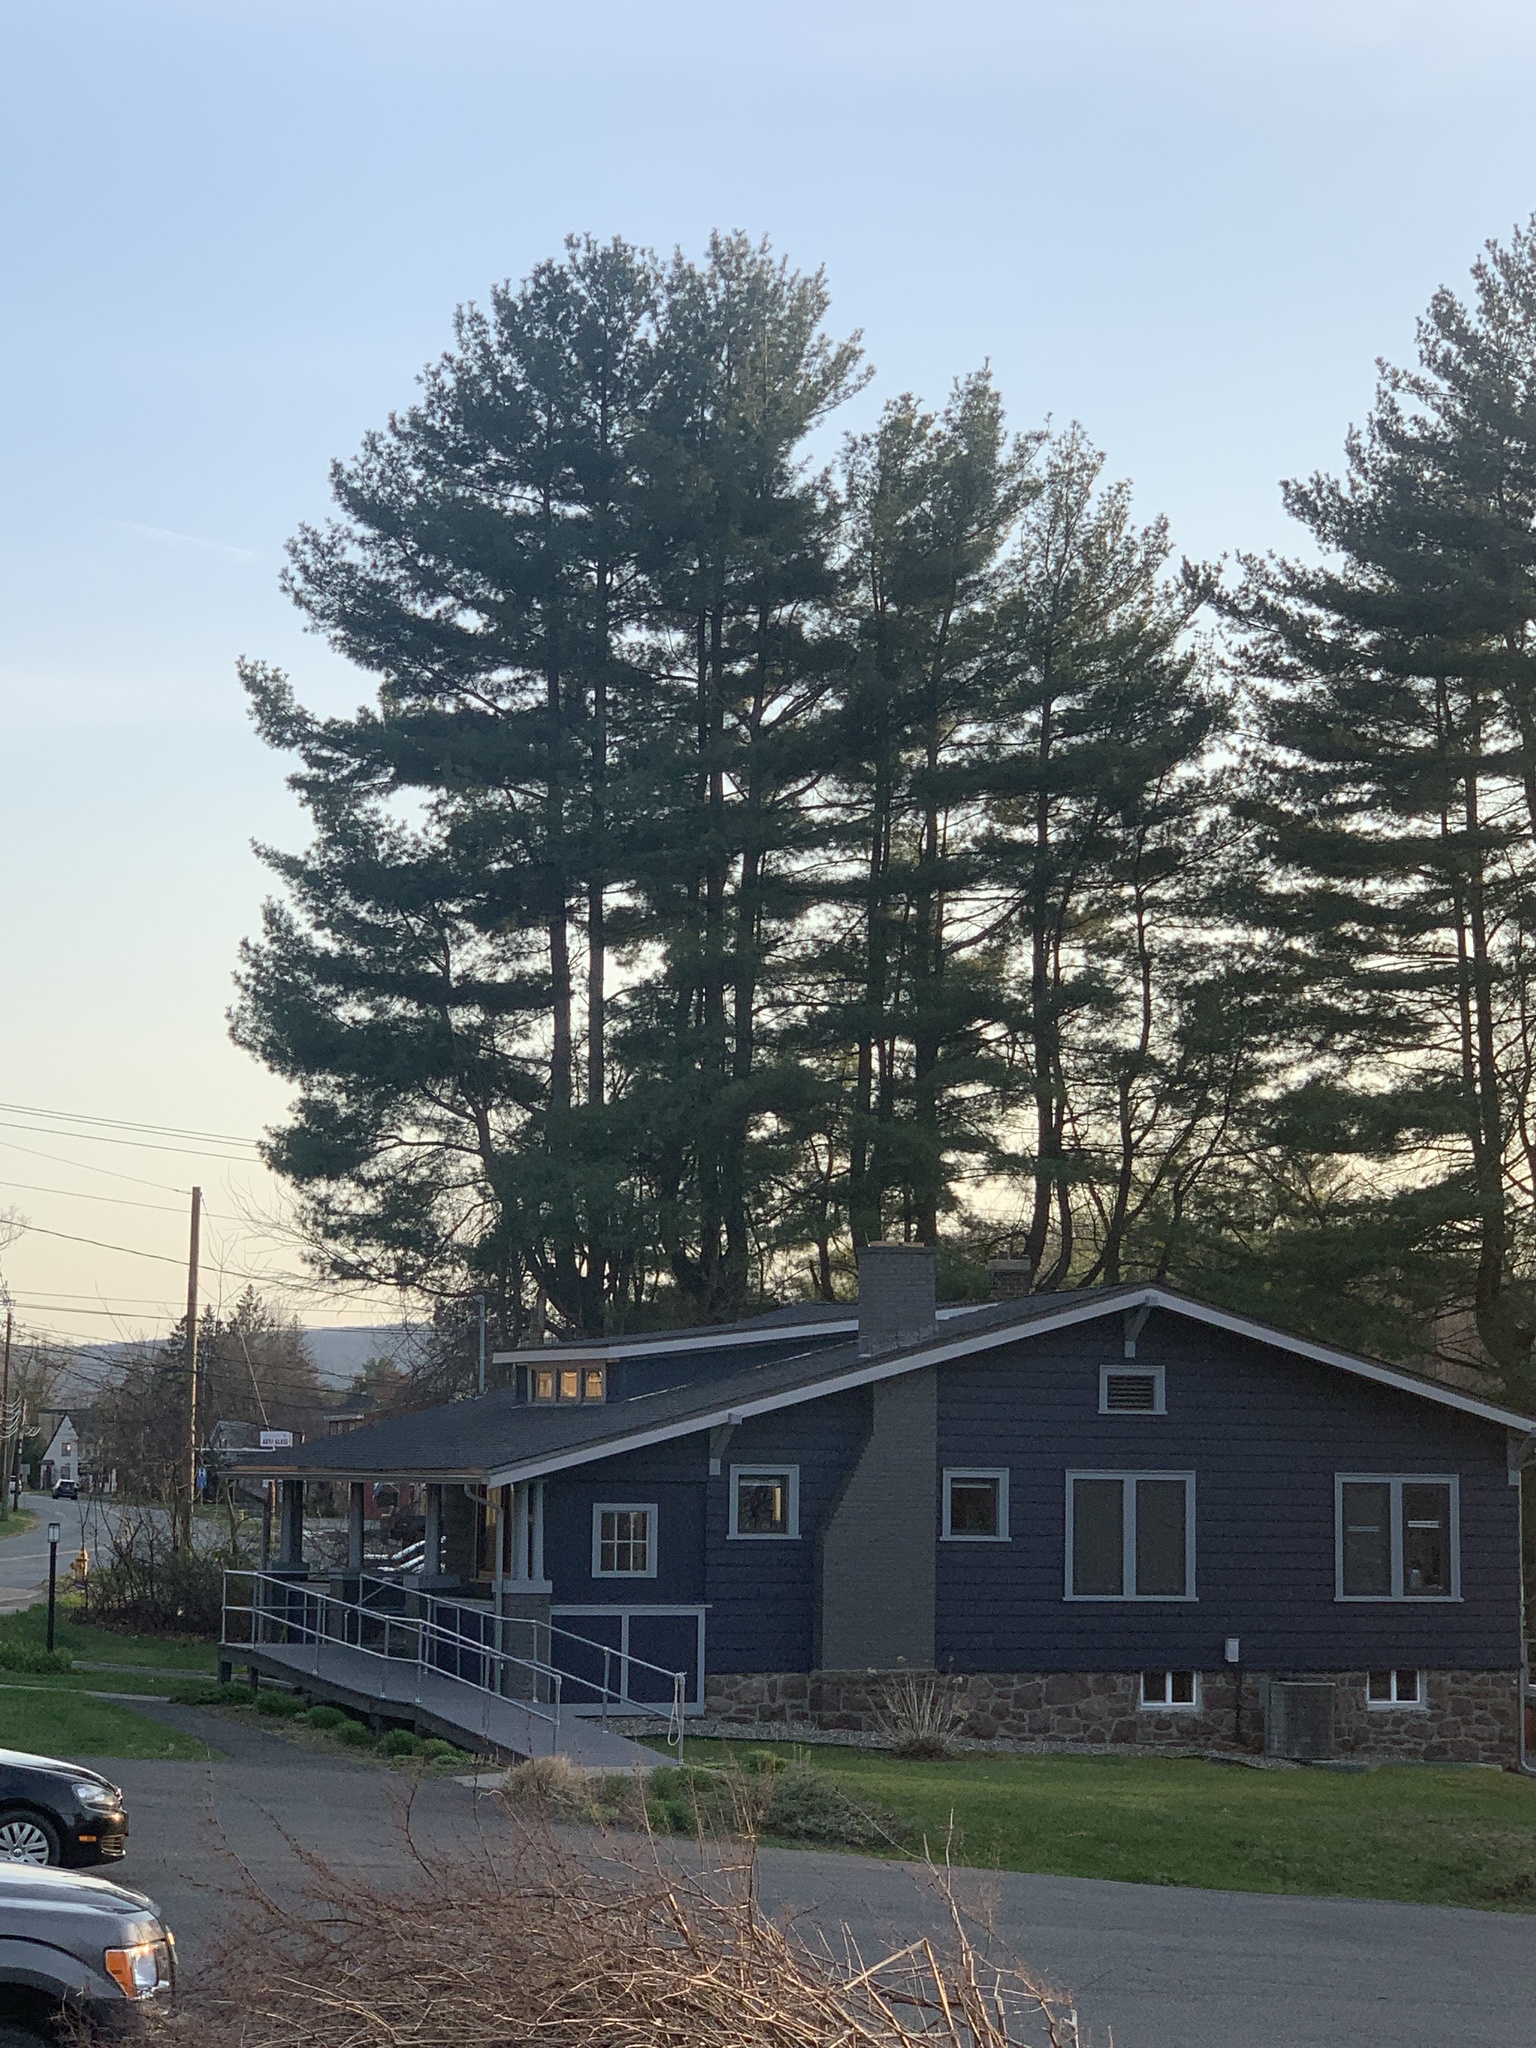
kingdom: Plantae
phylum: Tracheophyta
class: Pinopsida
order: Pinales
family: Pinaceae
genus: Pinus
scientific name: Pinus strobus
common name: Weymouth pine
